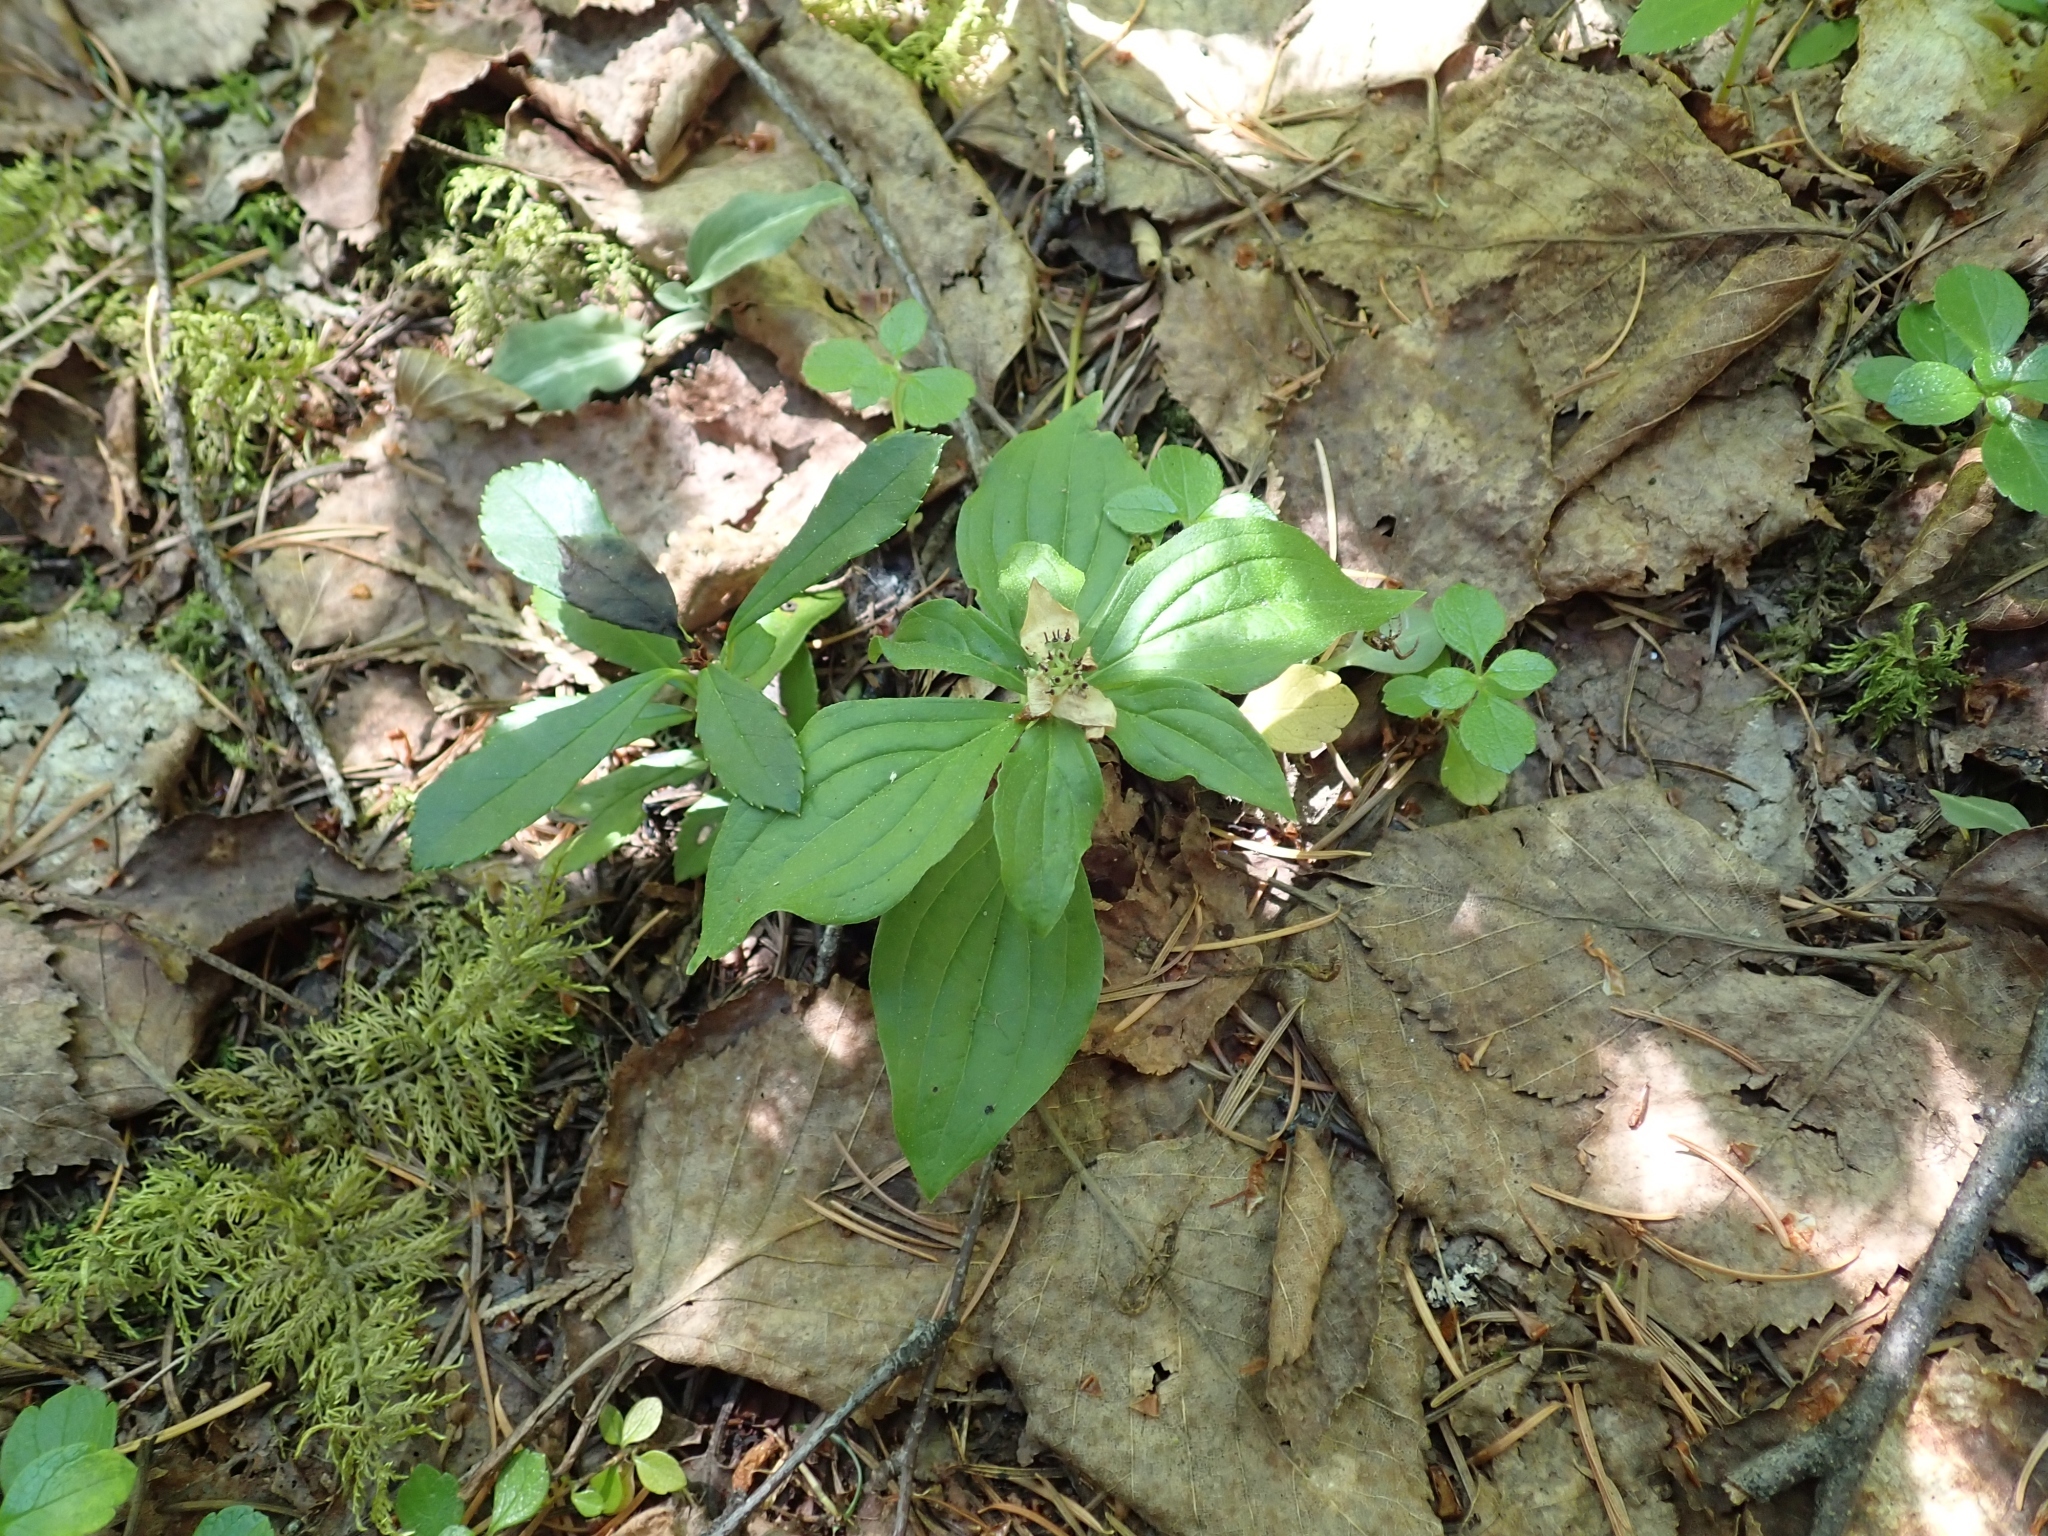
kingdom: Plantae
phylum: Tracheophyta
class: Magnoliopsida
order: Cornales
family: Cornaceae
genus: Cornus
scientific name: Cornus unalaschkensis
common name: Alaska bunchberry
